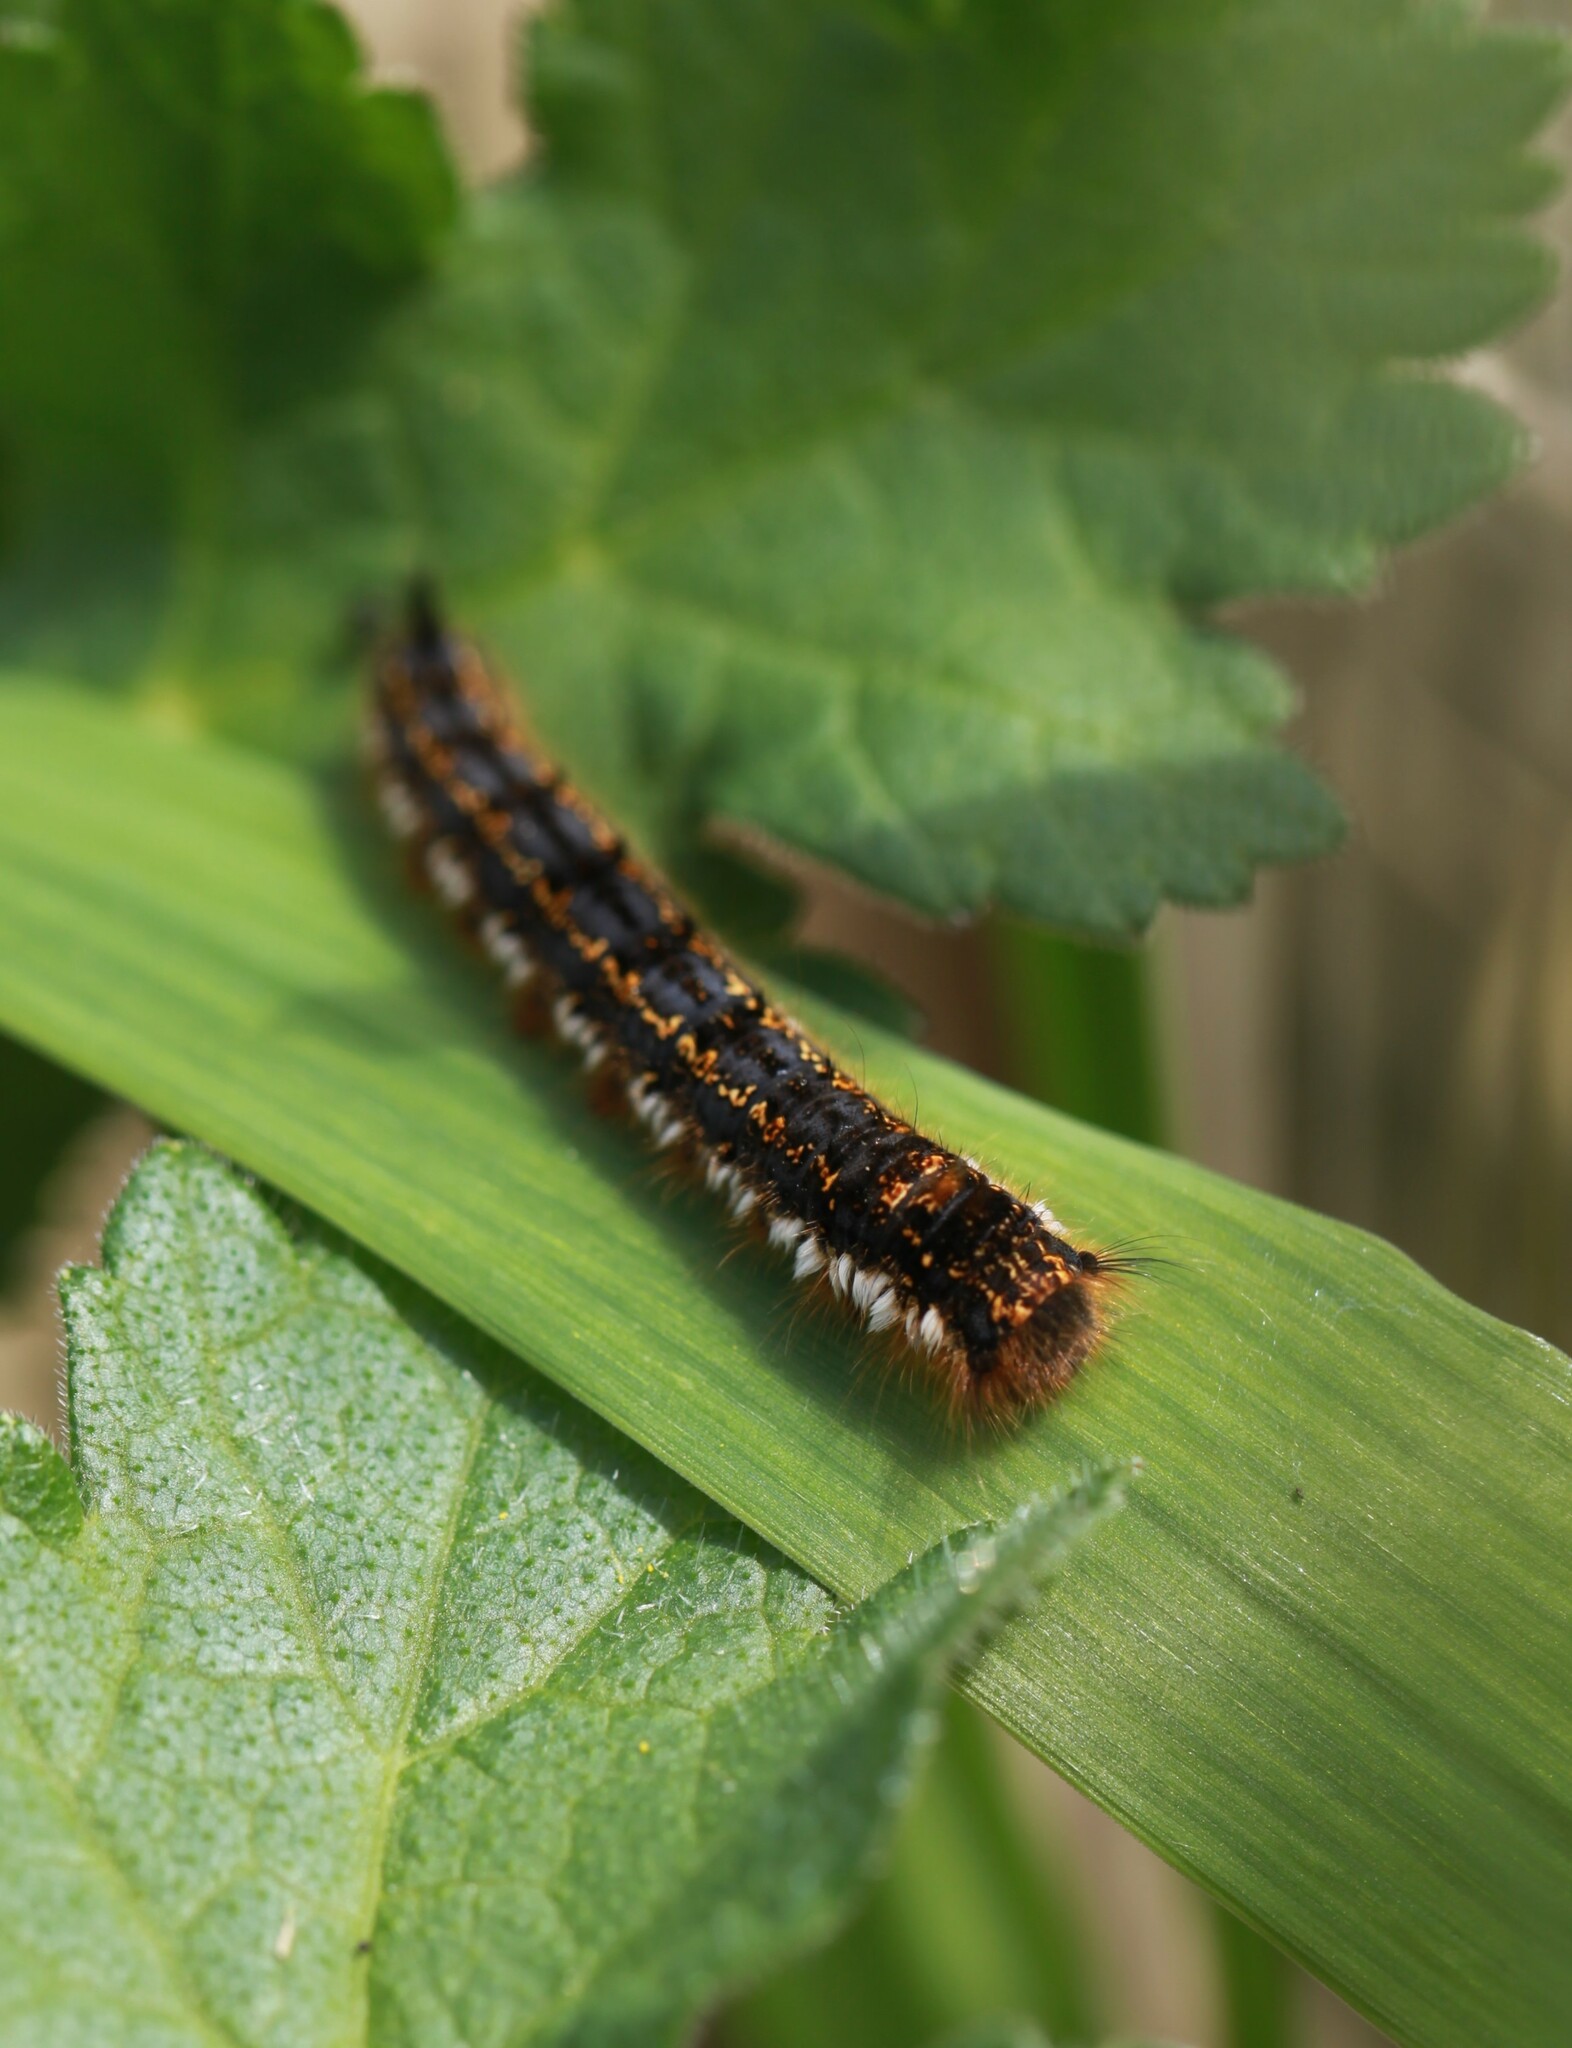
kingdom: Animalia
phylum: Arthropoda
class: Insecta
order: Lepidoptera
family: Lasiocampidae
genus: Euthrix
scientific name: Euthrix potatoria
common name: Drinker
